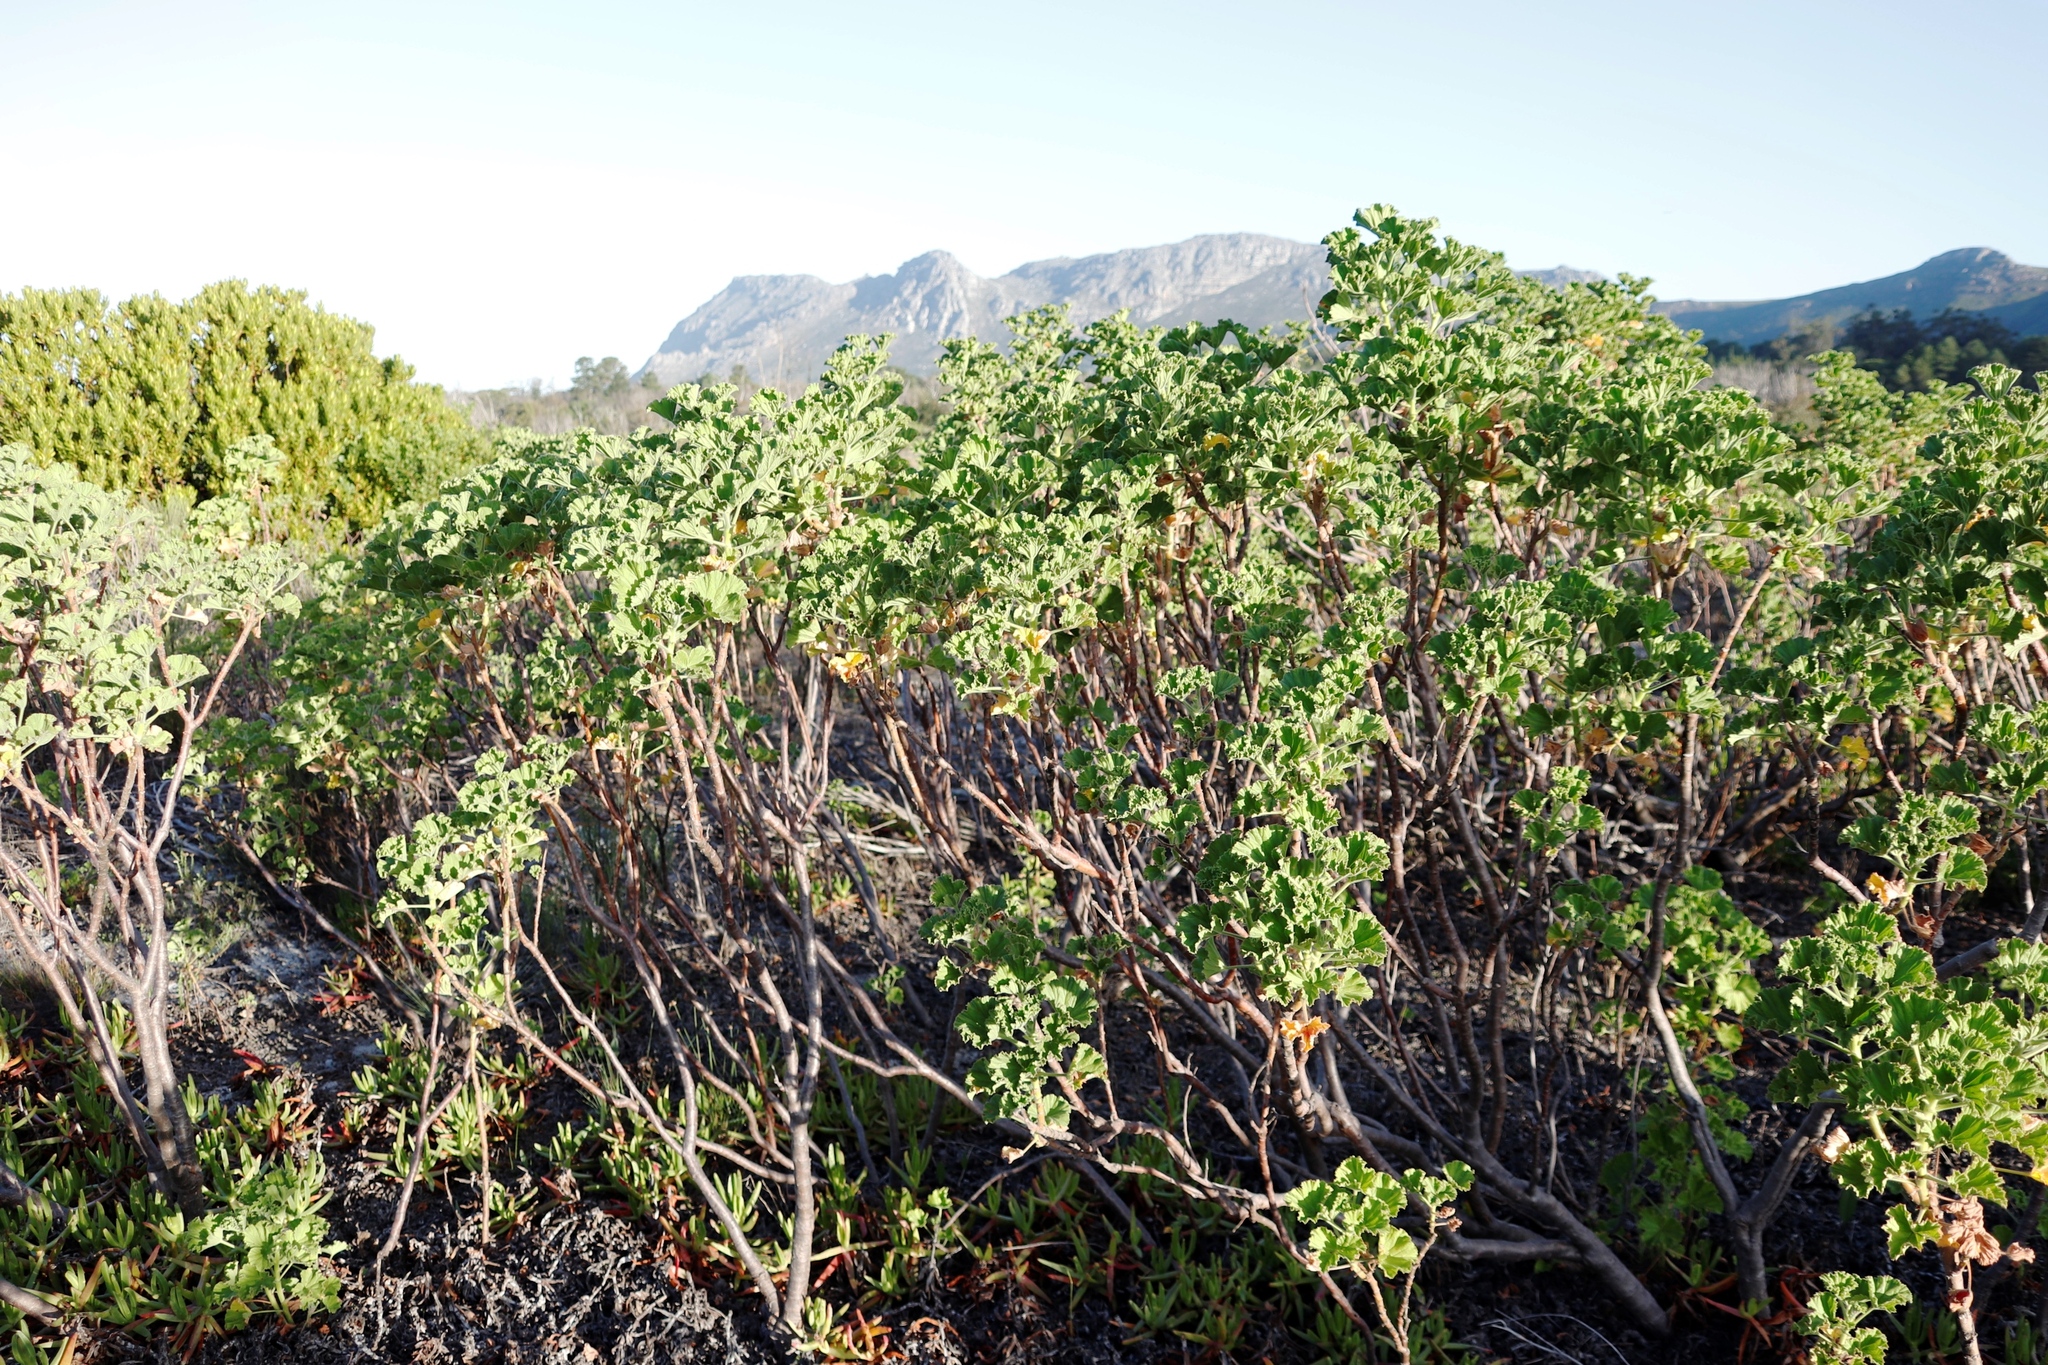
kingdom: Plantae
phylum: Tracheophyta
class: Magnoliopsida
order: Geraniales
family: Geraniaceae
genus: Pelargonium
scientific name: Pelargonium cucullatum
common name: Tree pelargonium
